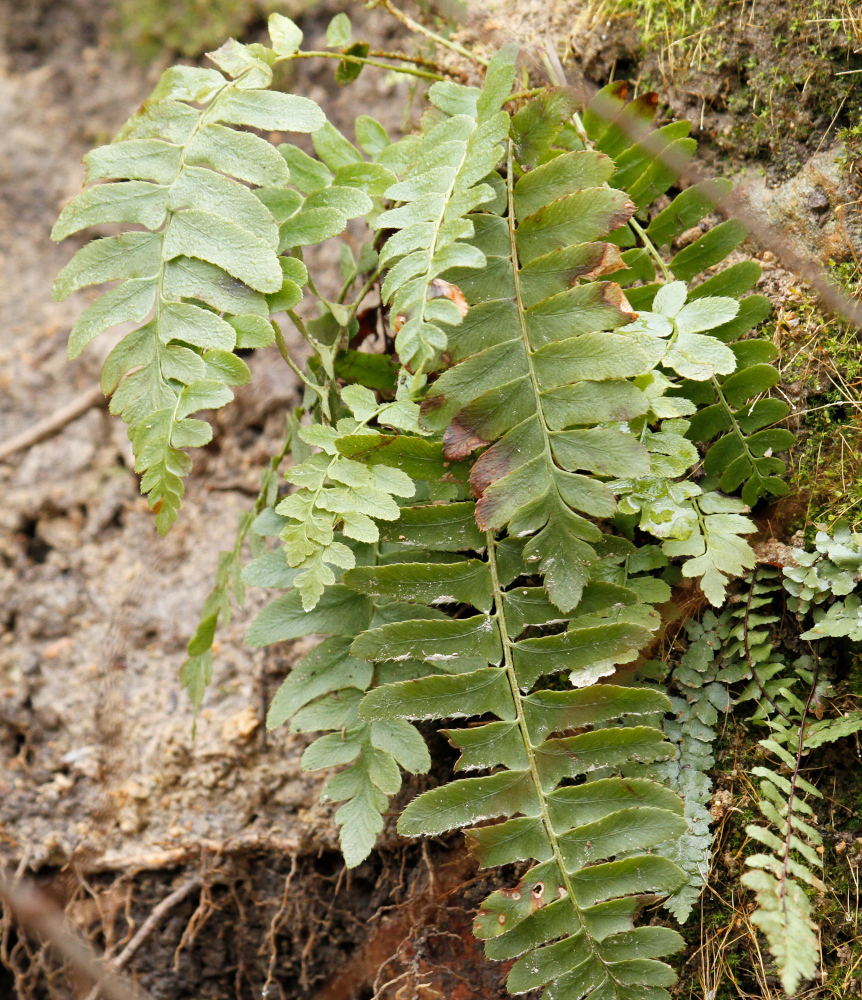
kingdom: Plantae
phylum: Tracheophyta
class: Polypodiopsida
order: Polypodiales
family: Dryopteridaceae
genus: Polystichum
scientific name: Polystichum acrostichoides
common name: Christmas fern
